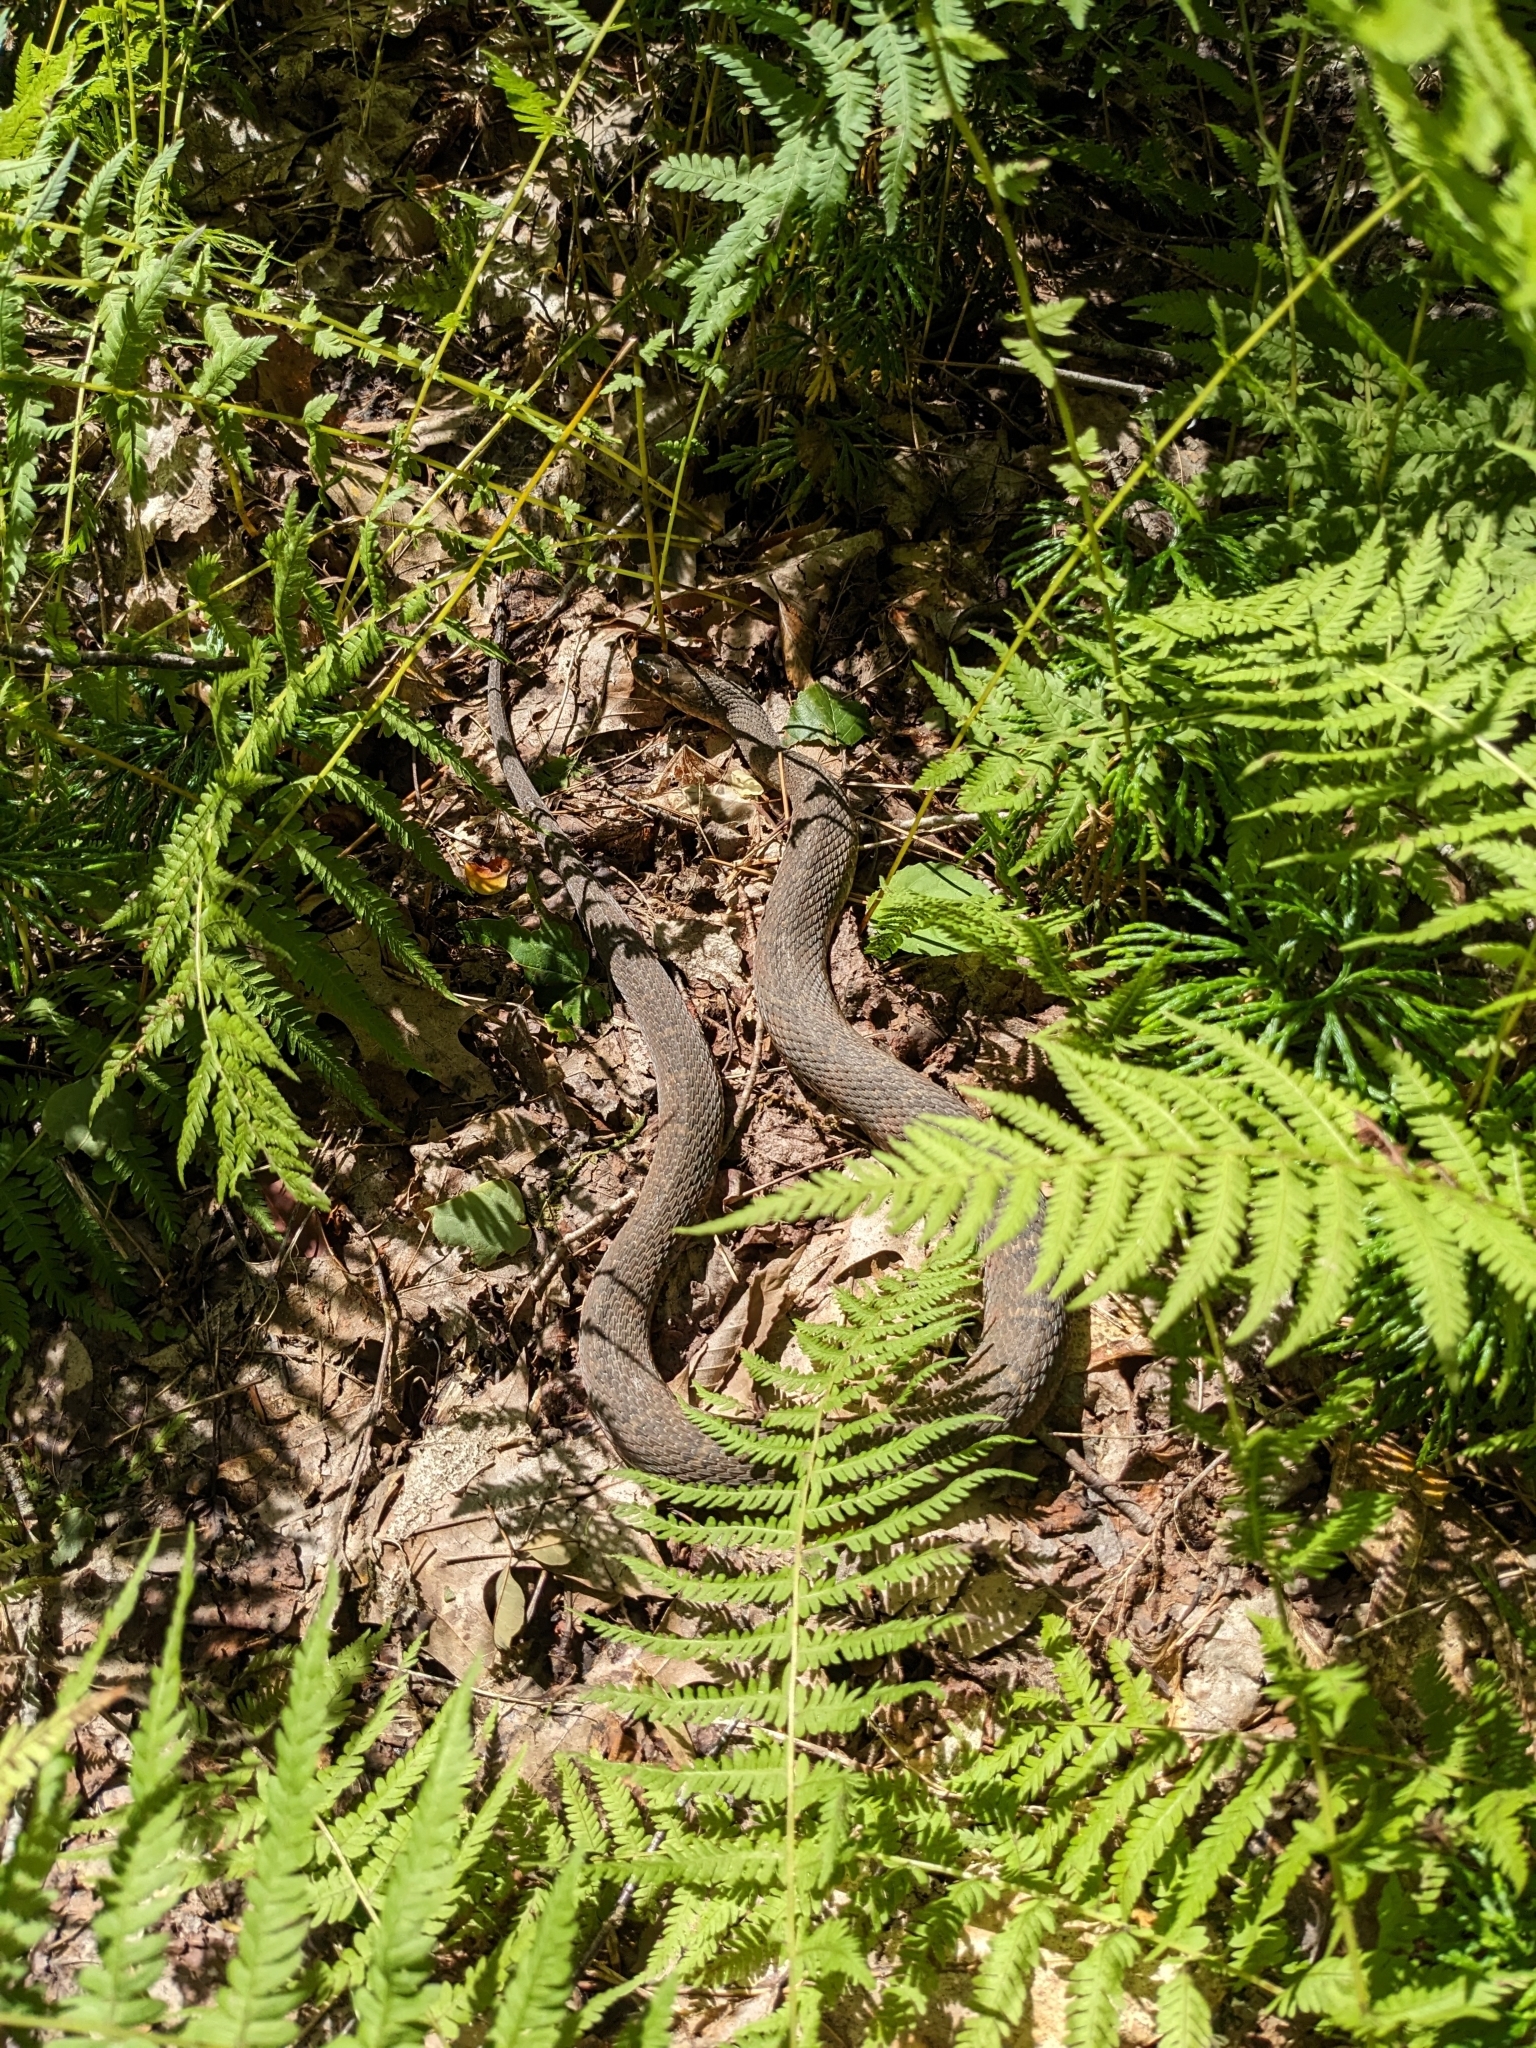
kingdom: Animalia
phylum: Chordata
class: Squamata
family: Colubridae
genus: Nerodia
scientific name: Nerodia sipedon
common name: Northern water snake
